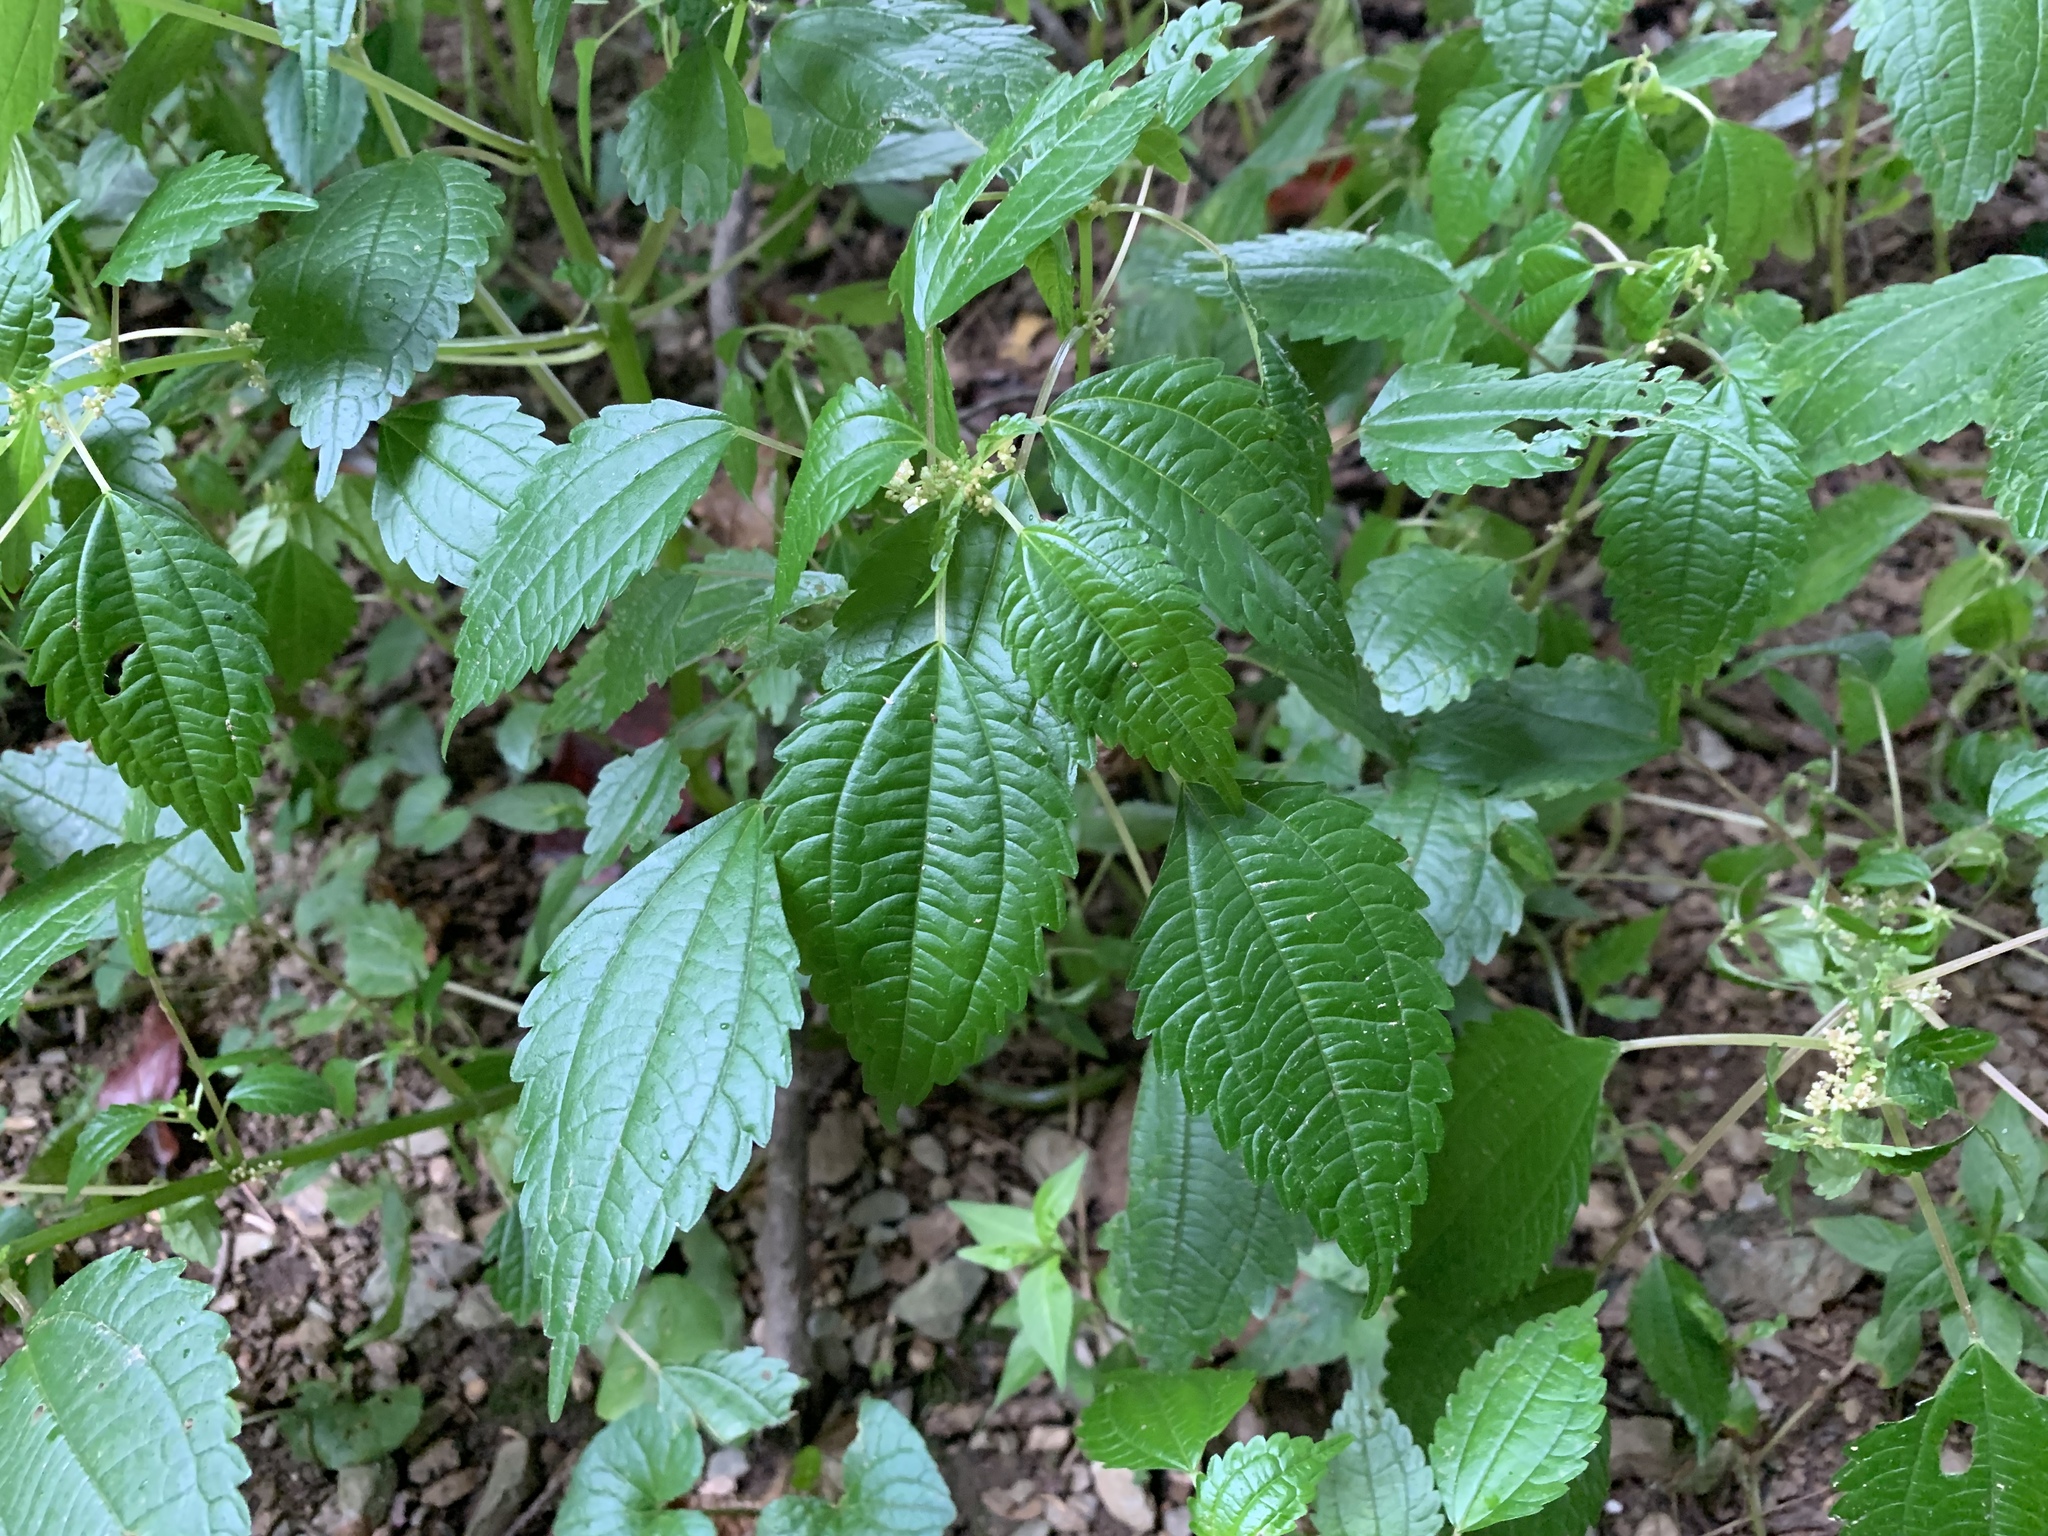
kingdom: Plantae
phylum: Tracheophyta
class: Magnoliopsida
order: Rosales
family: Urticaceae
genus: Pilea
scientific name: Pilea pumila
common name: Clearweed
